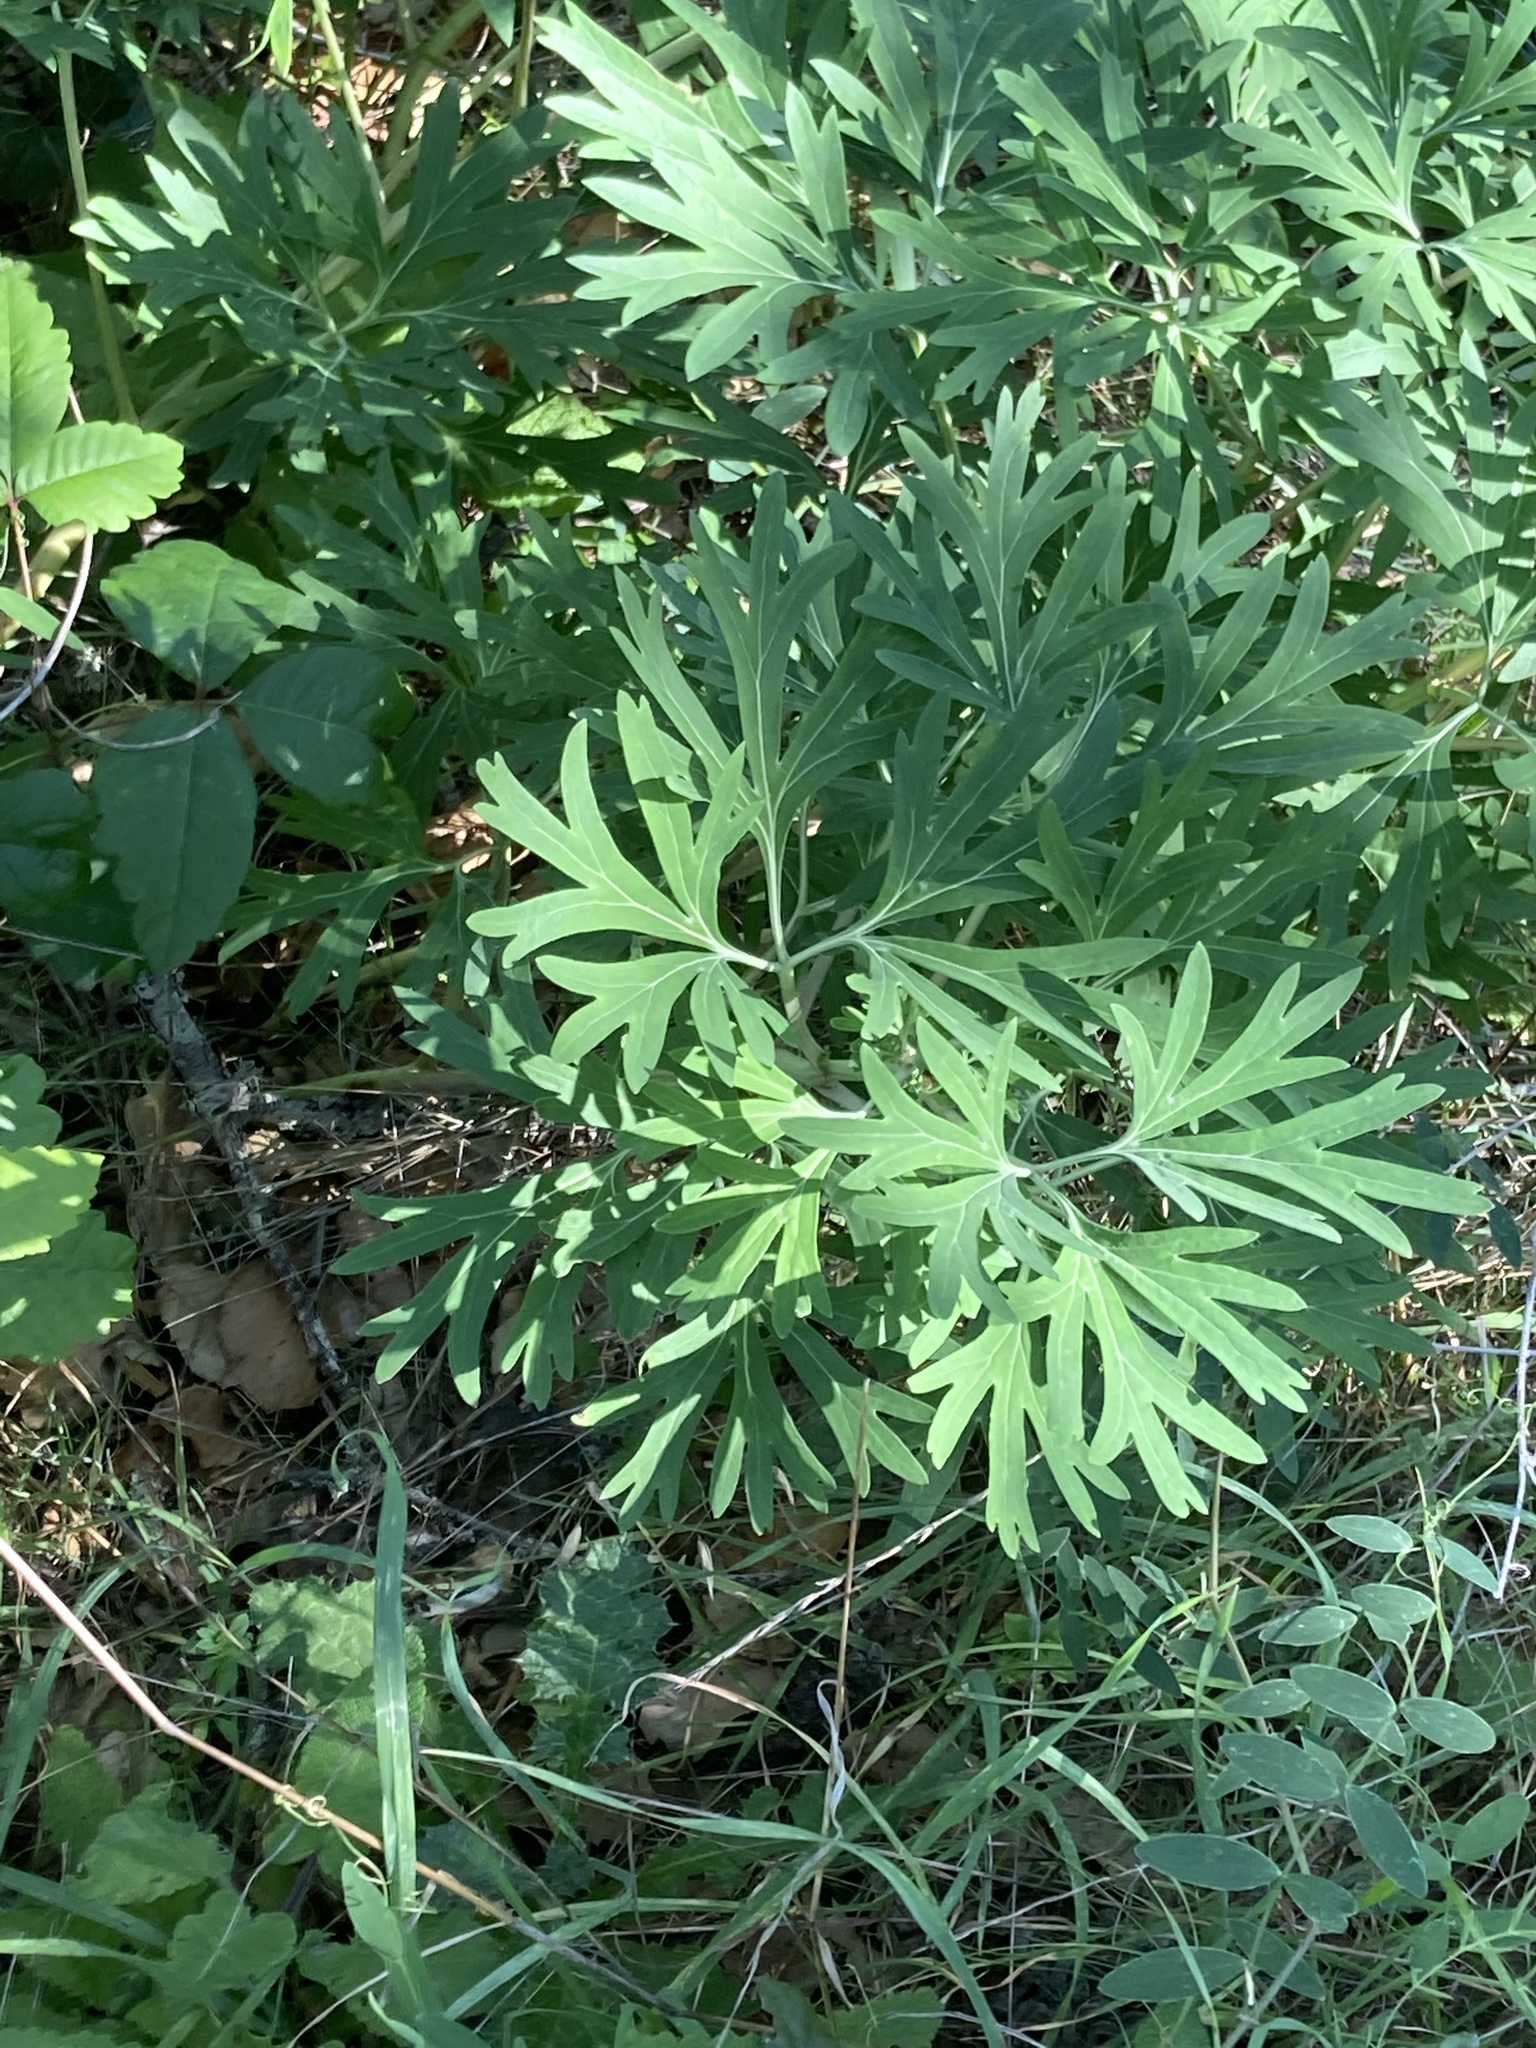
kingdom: Plantae
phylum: Tracheophyta
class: Magnoliopsida
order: Saxifragales
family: Paeoniaceae
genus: Paeonia
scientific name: Paeonia californica
